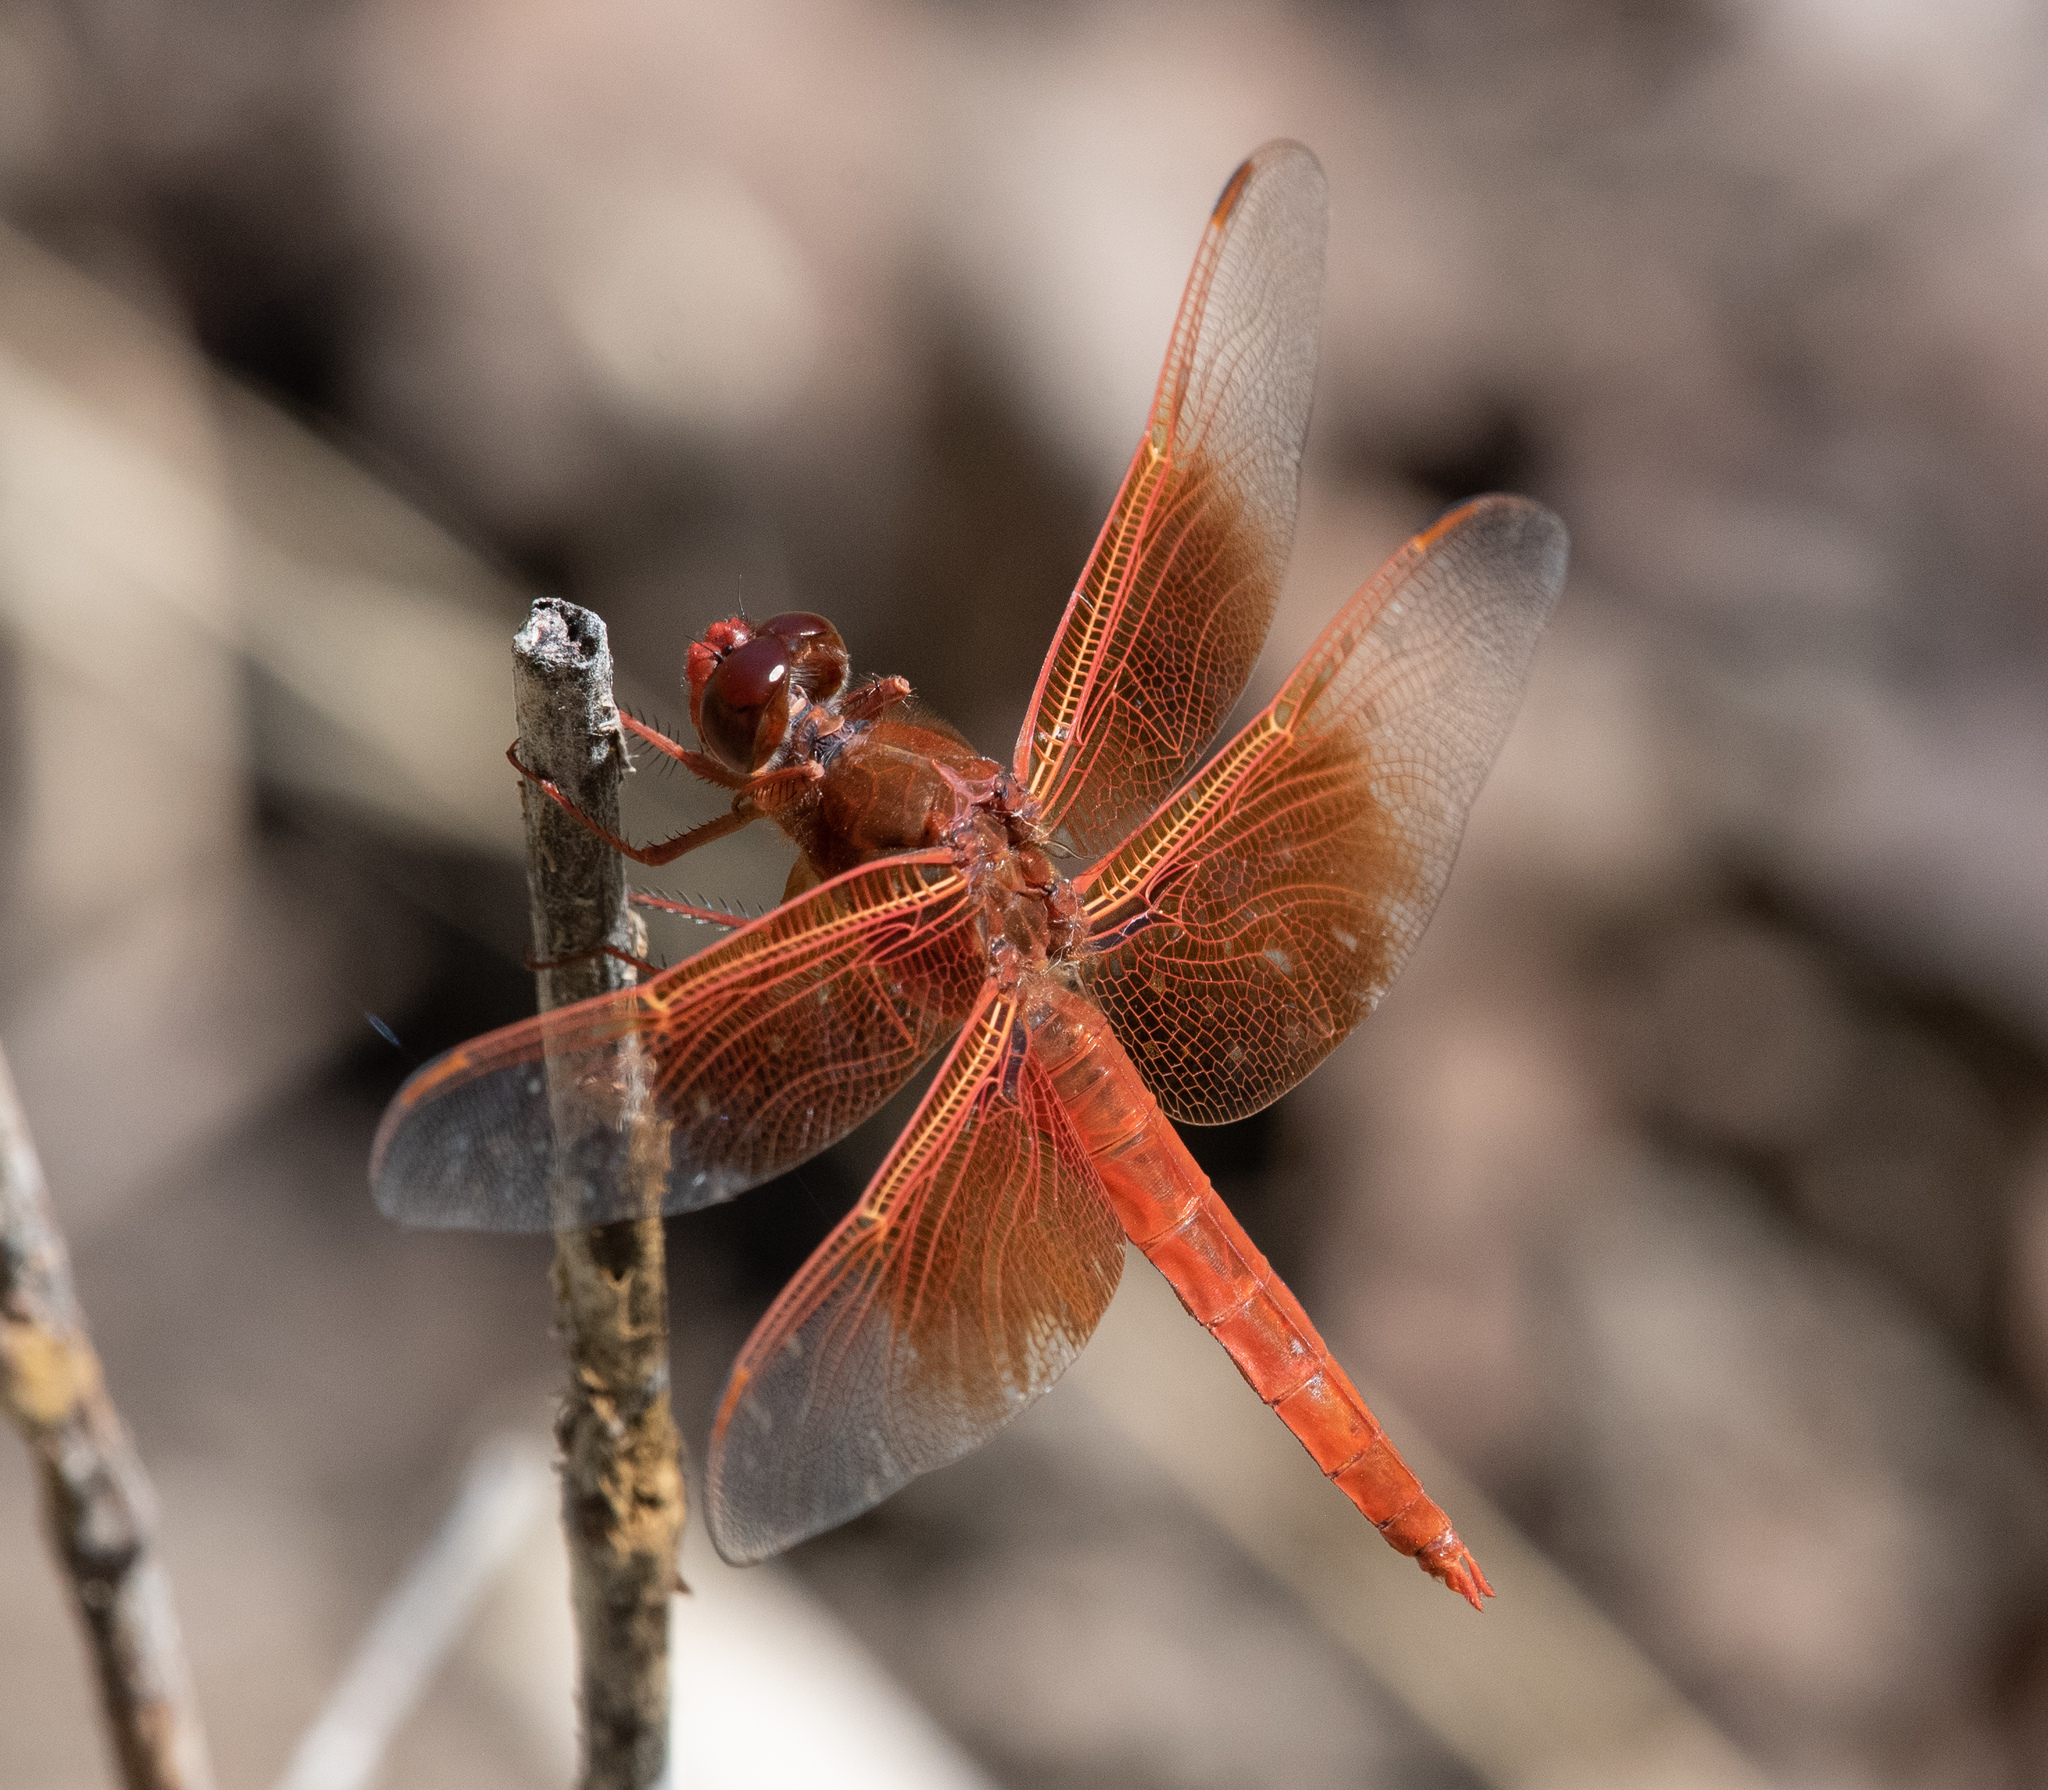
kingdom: Animalia
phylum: Arthropoda
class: Insecta
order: Odonata
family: Libellulidae
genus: Libellula
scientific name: Libellula saturata
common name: Flame skimmer
